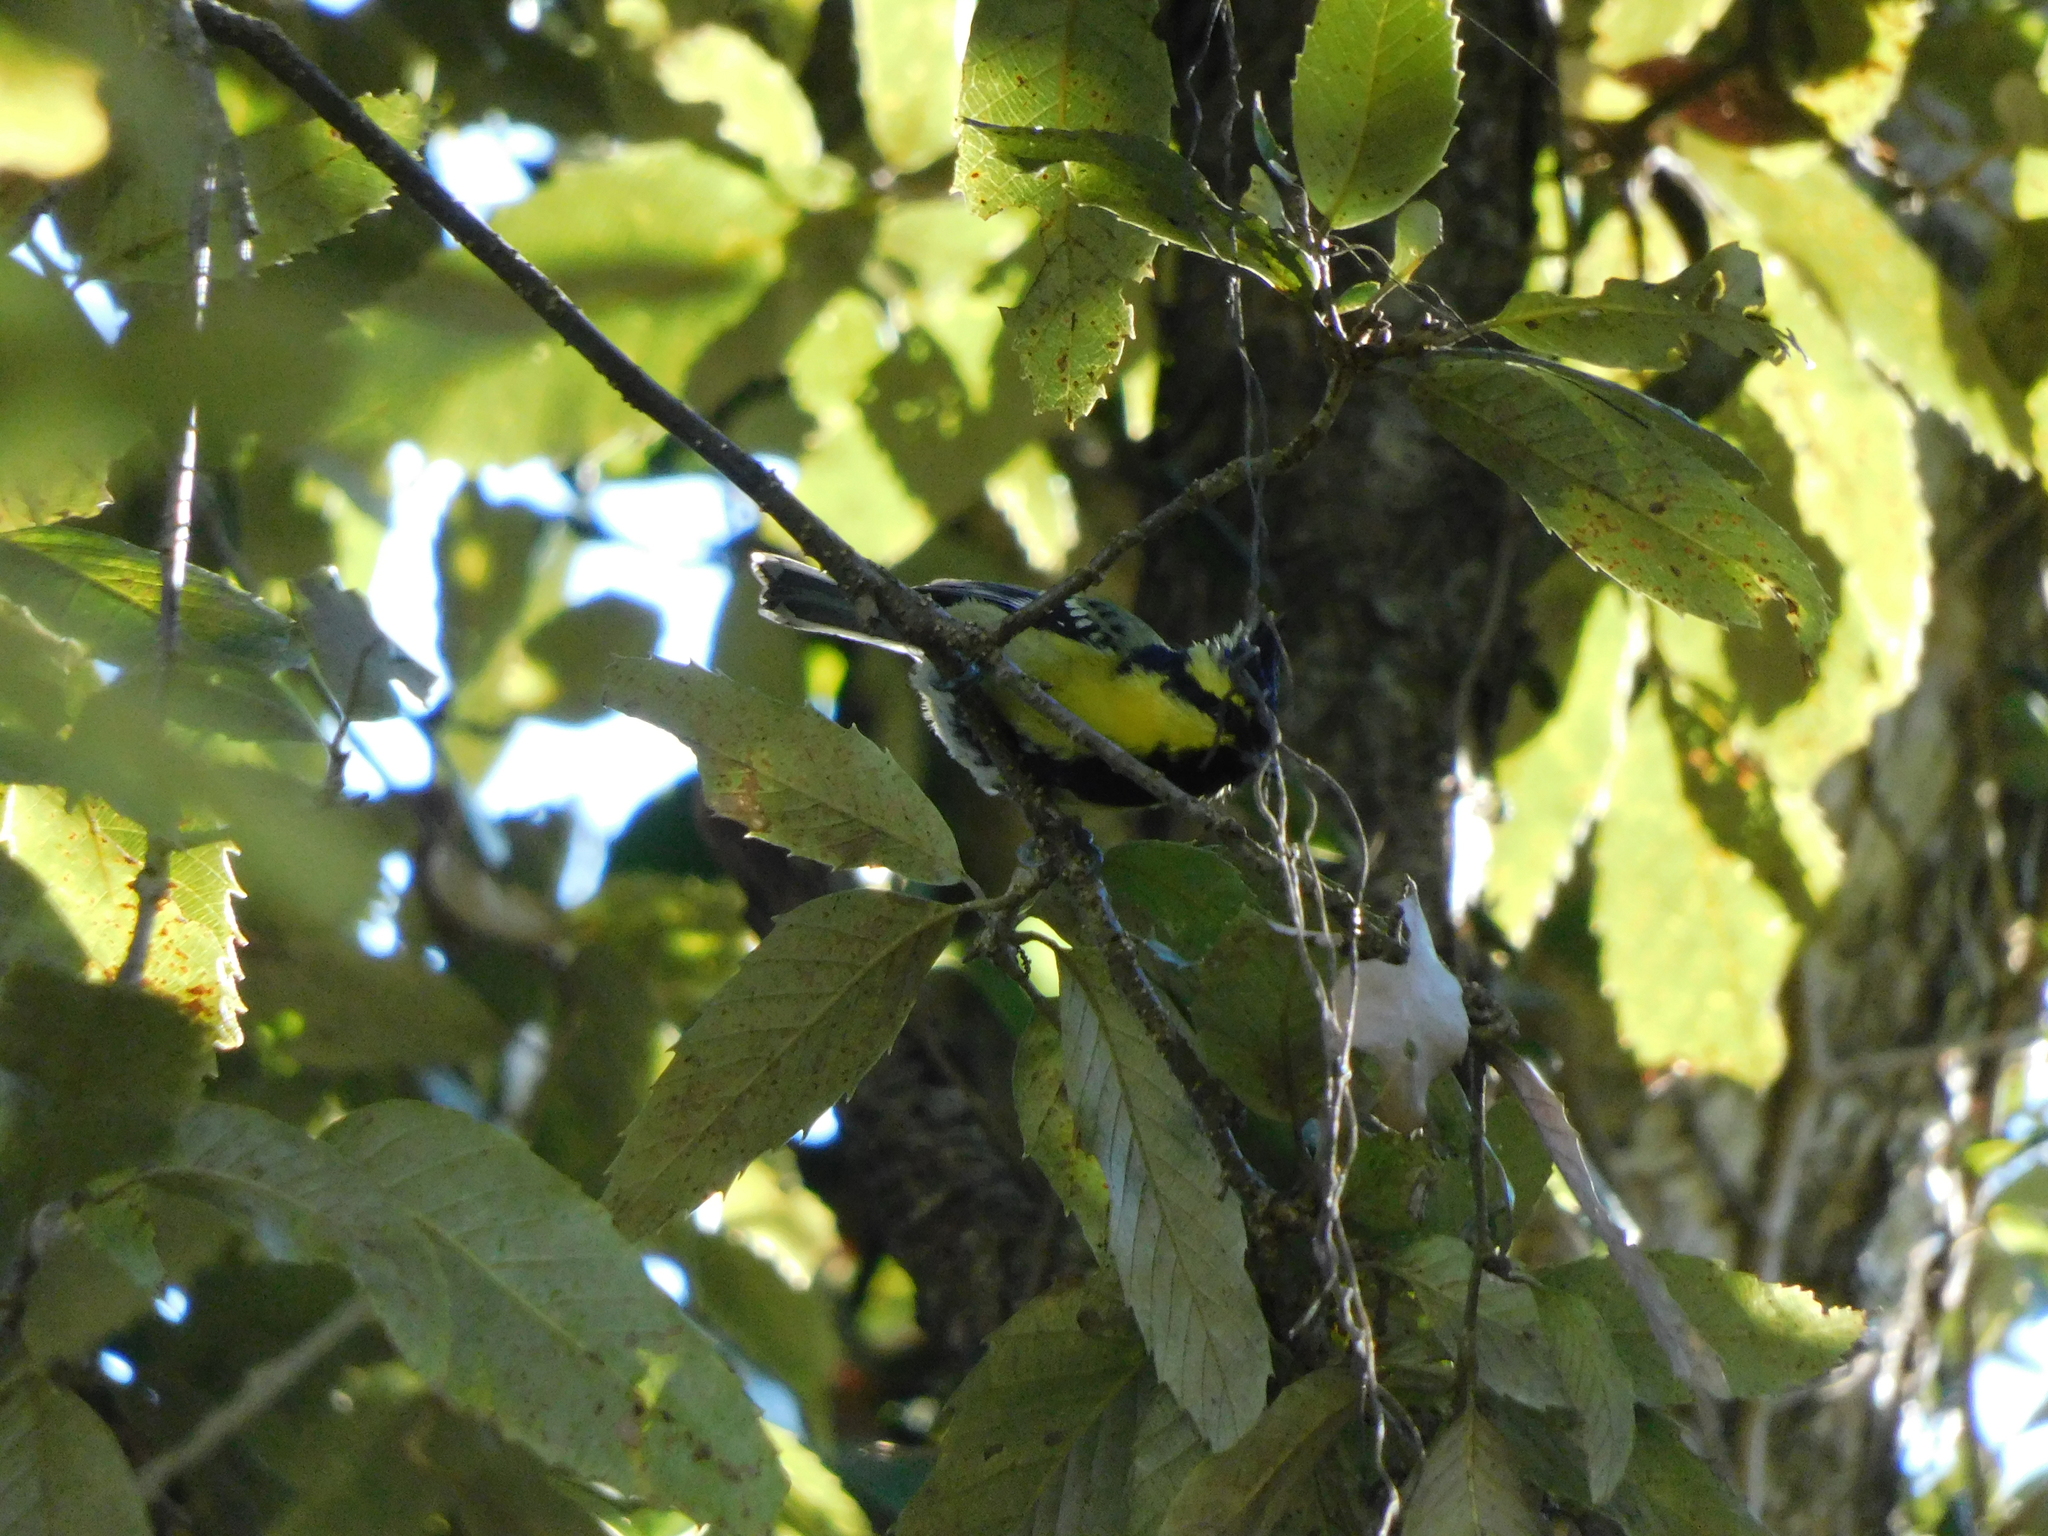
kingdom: Animalia
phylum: Chordata
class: Aves
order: Passeriformes
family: Paridae
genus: Parus
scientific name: Parus xanthogenys
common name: Black-lored tit
